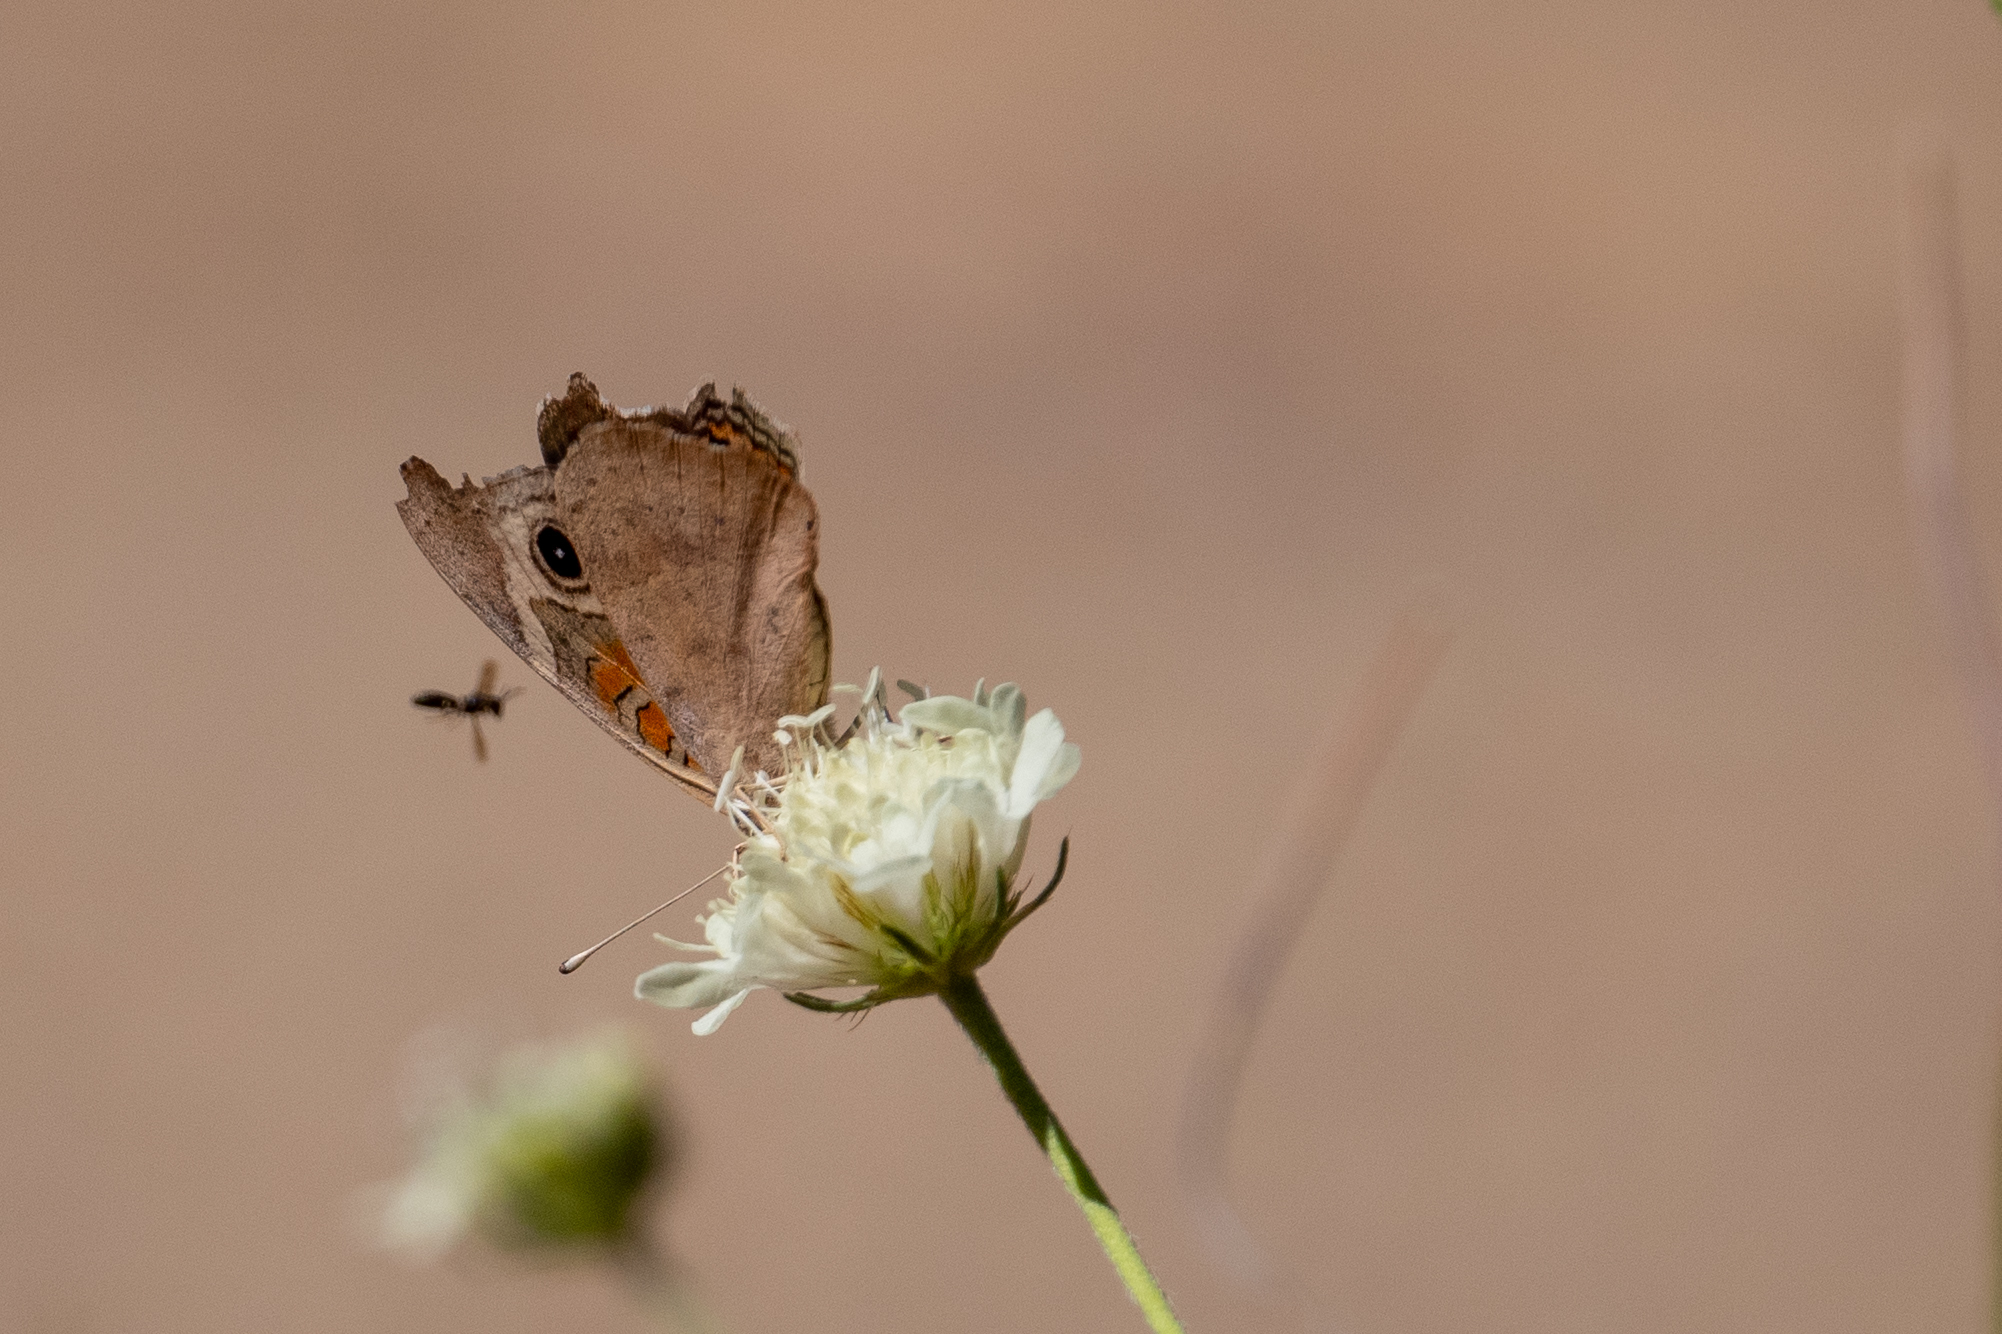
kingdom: Animalia
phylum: Arthropoda
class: Insecta
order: Lepidoptera
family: Nymphalidae
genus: Junonia
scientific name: Junonia grisea
